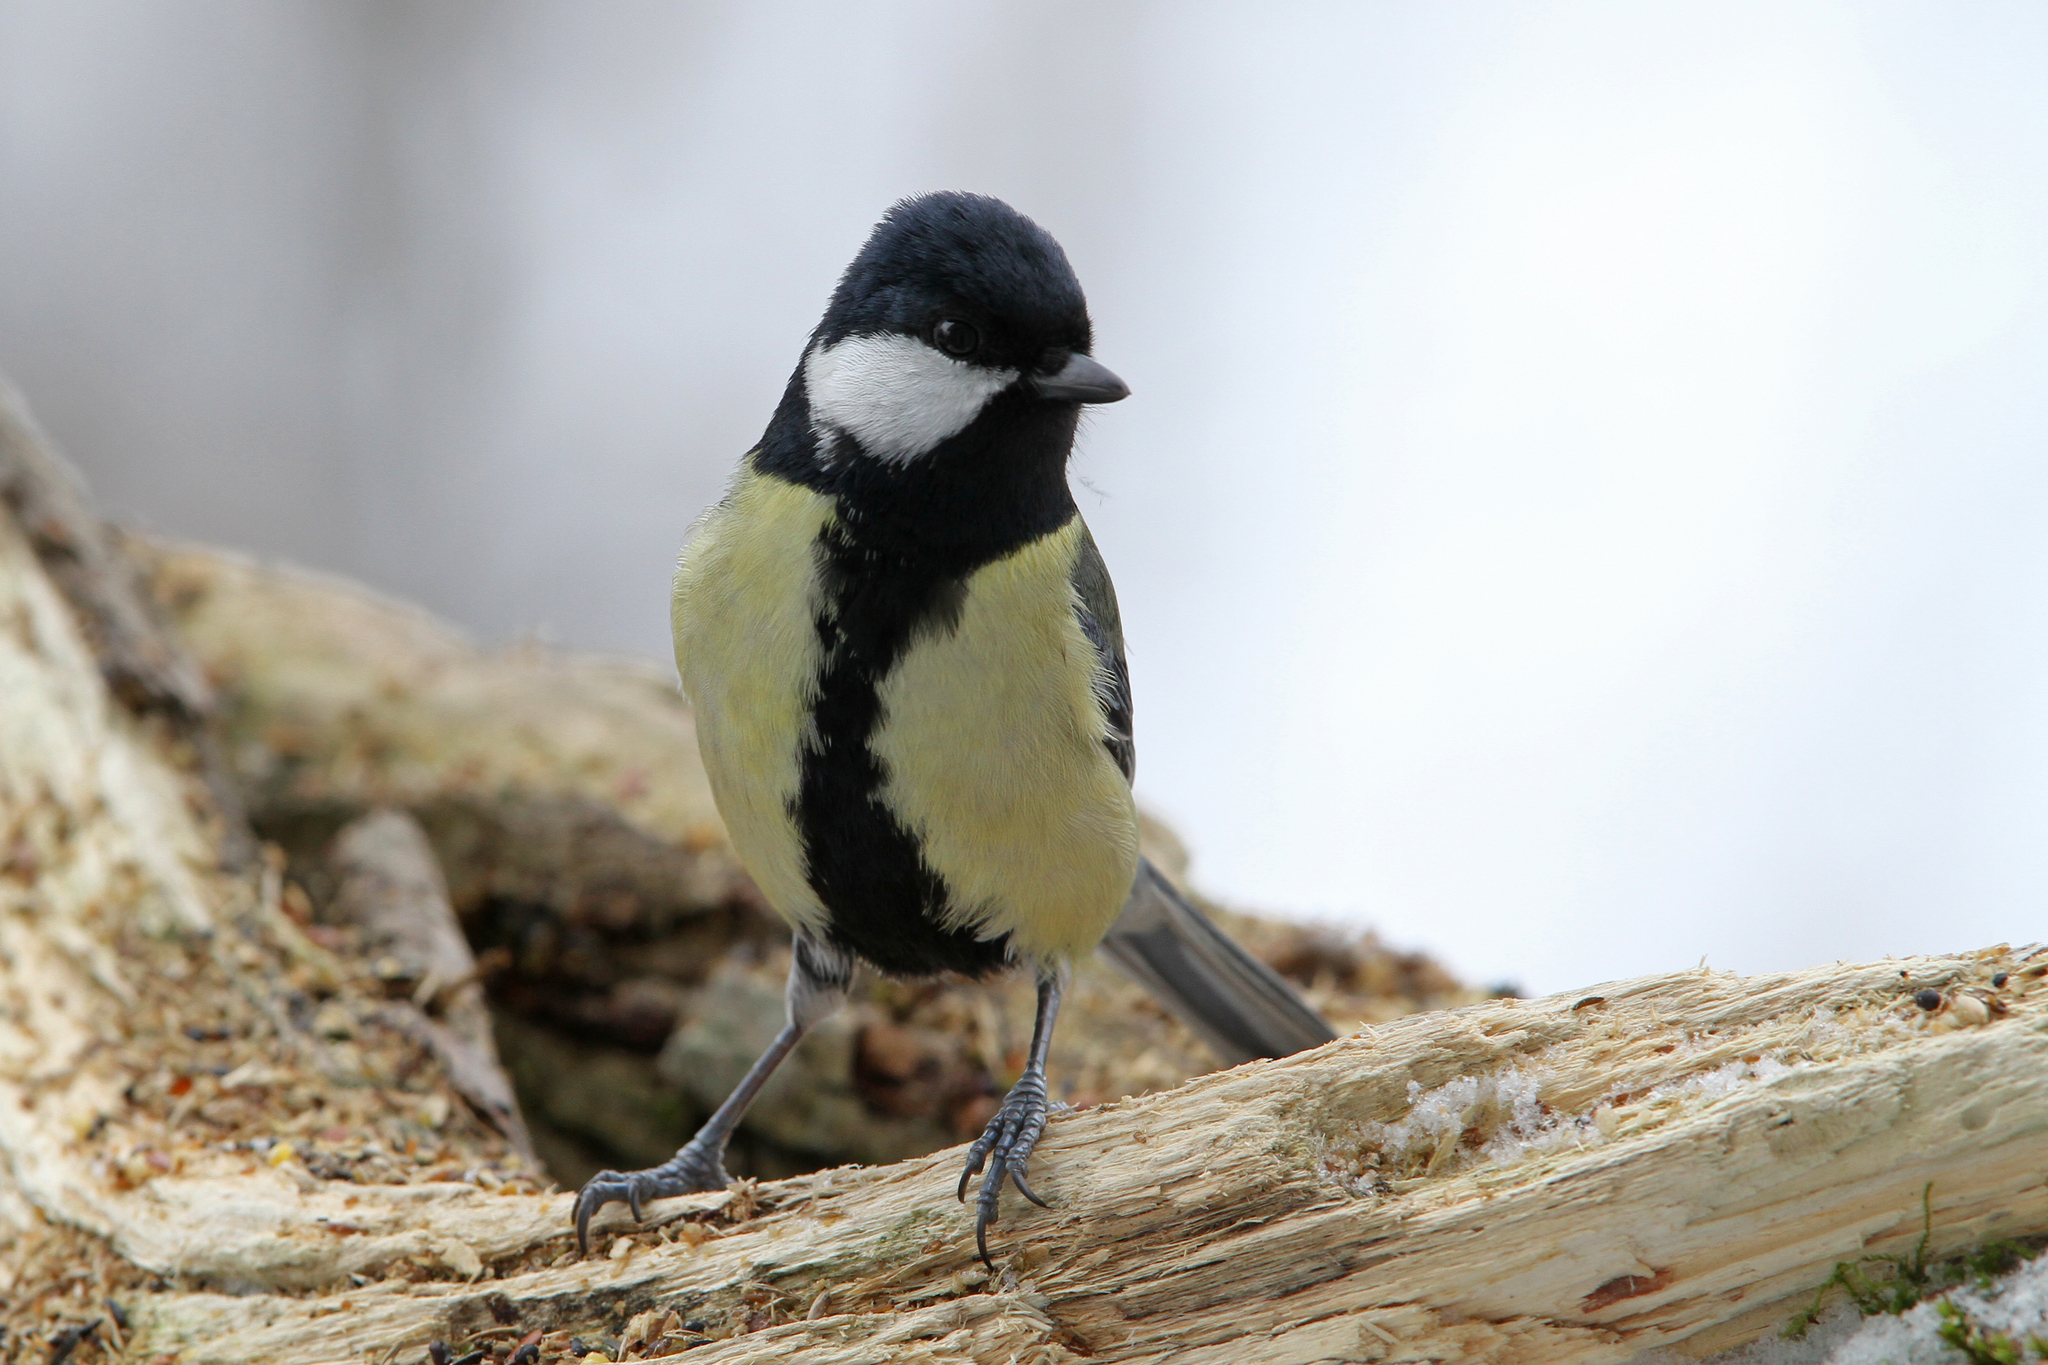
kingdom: Animalia
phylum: Chordata
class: Aves
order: Passeriformes
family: Paridae
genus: Parus
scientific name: Parus major
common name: Great tit
